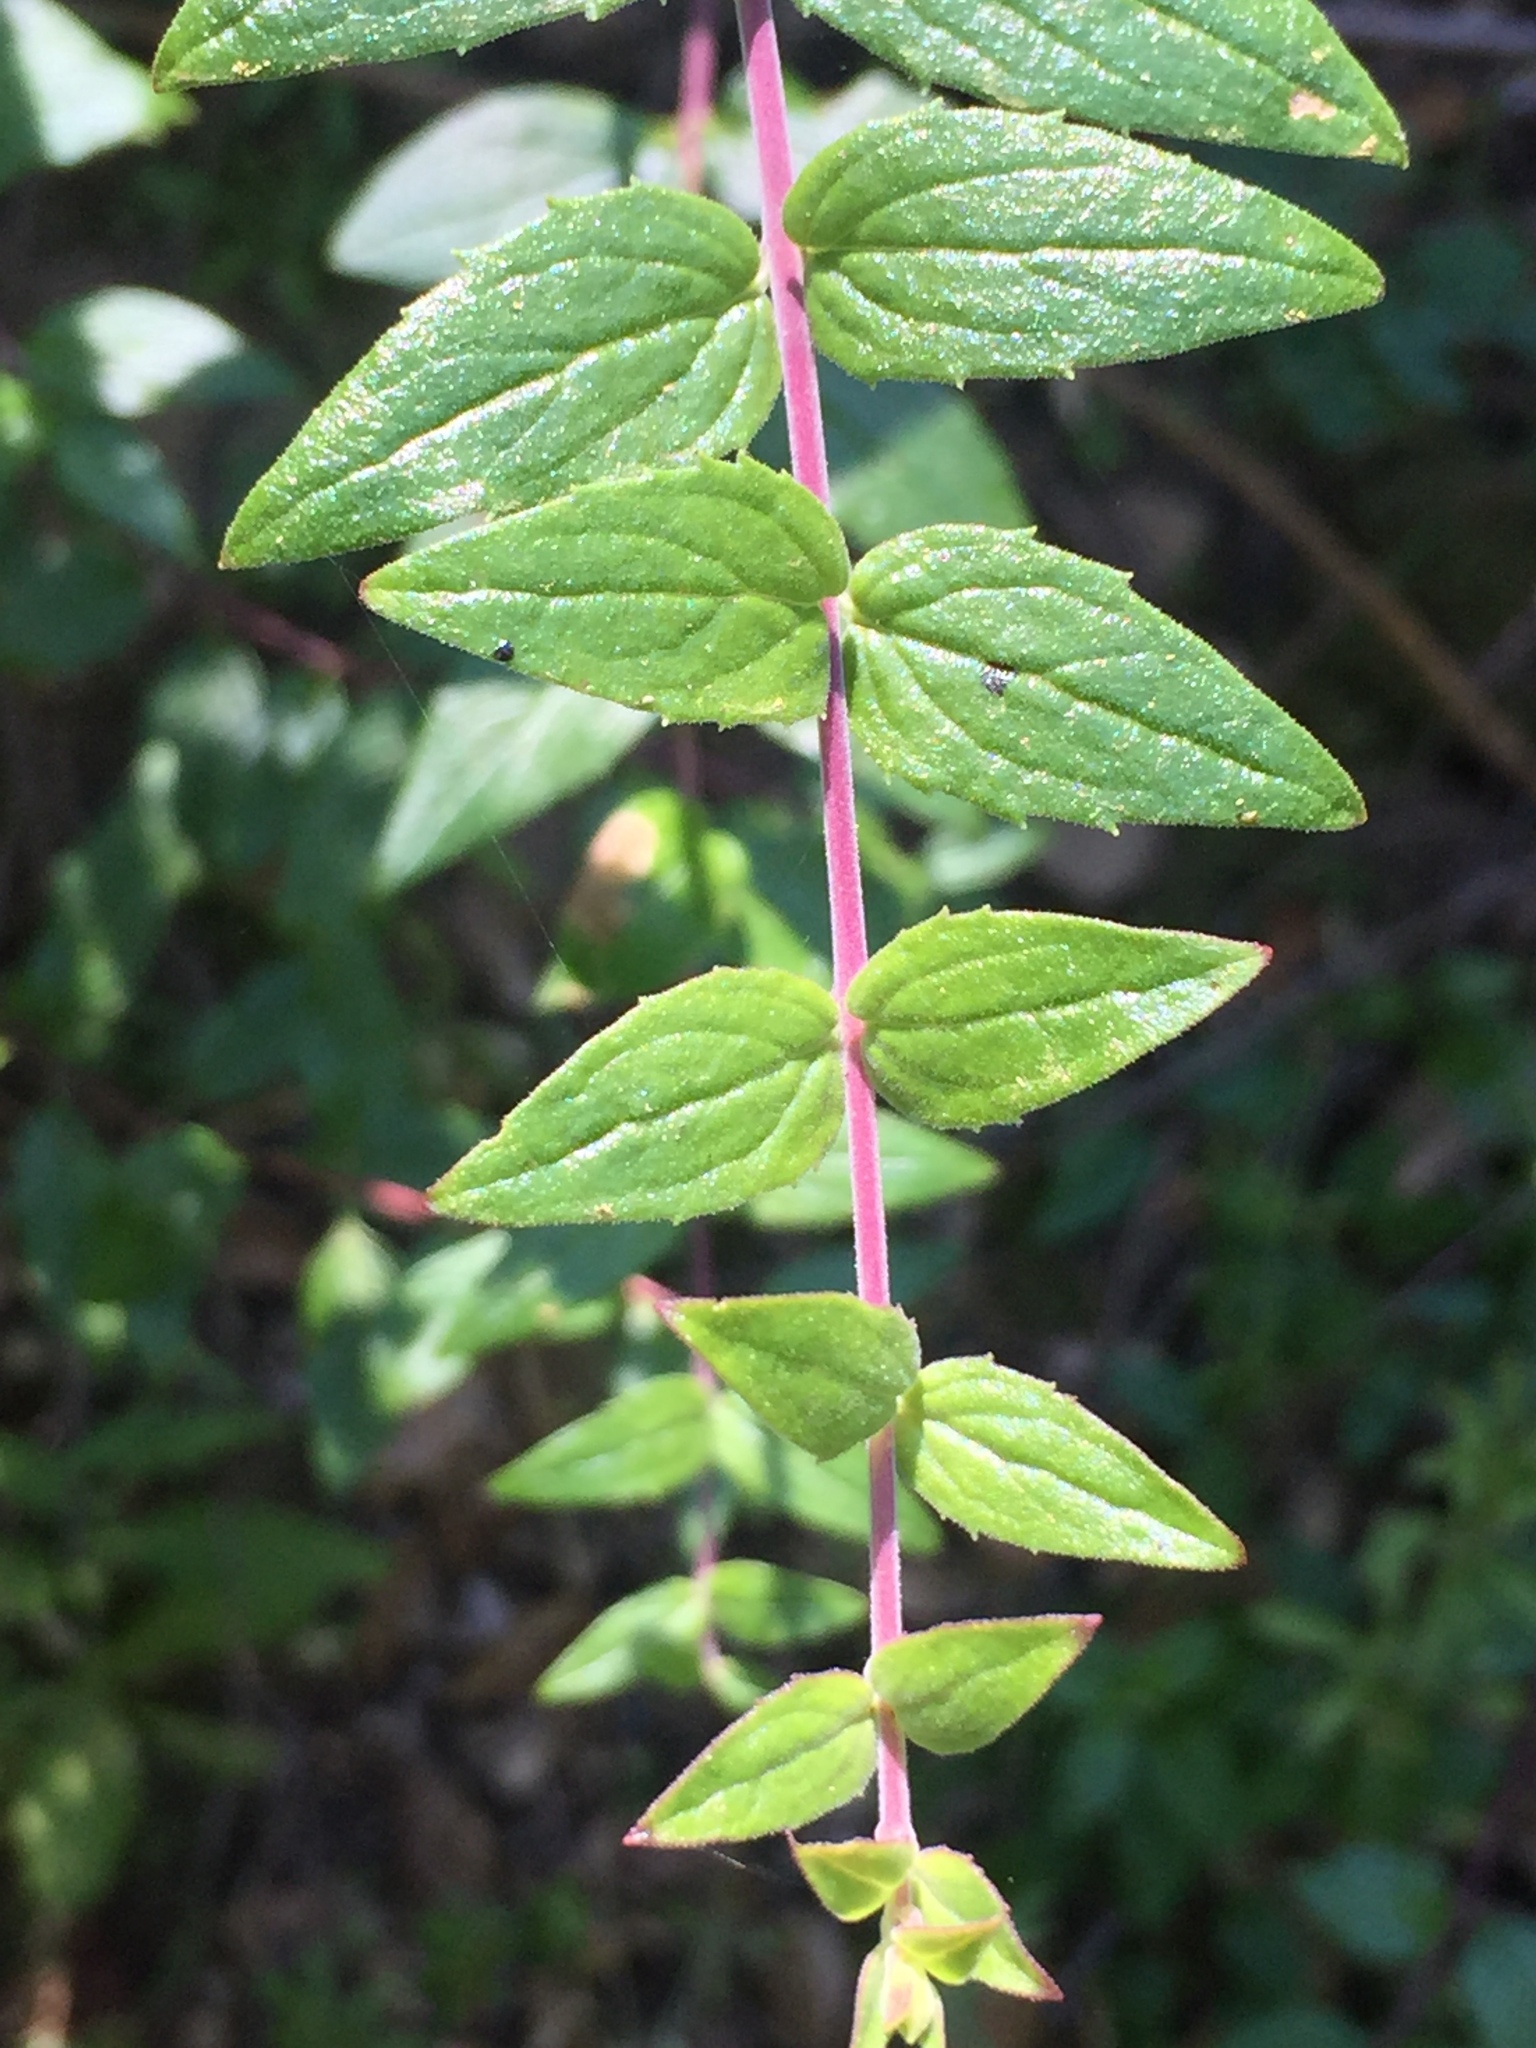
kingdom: Plantae
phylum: Tracheophyta
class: Magnoliopsida
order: Lamiales
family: Plantaginaceae
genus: Keckiella
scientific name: Keckiella cordifolia
